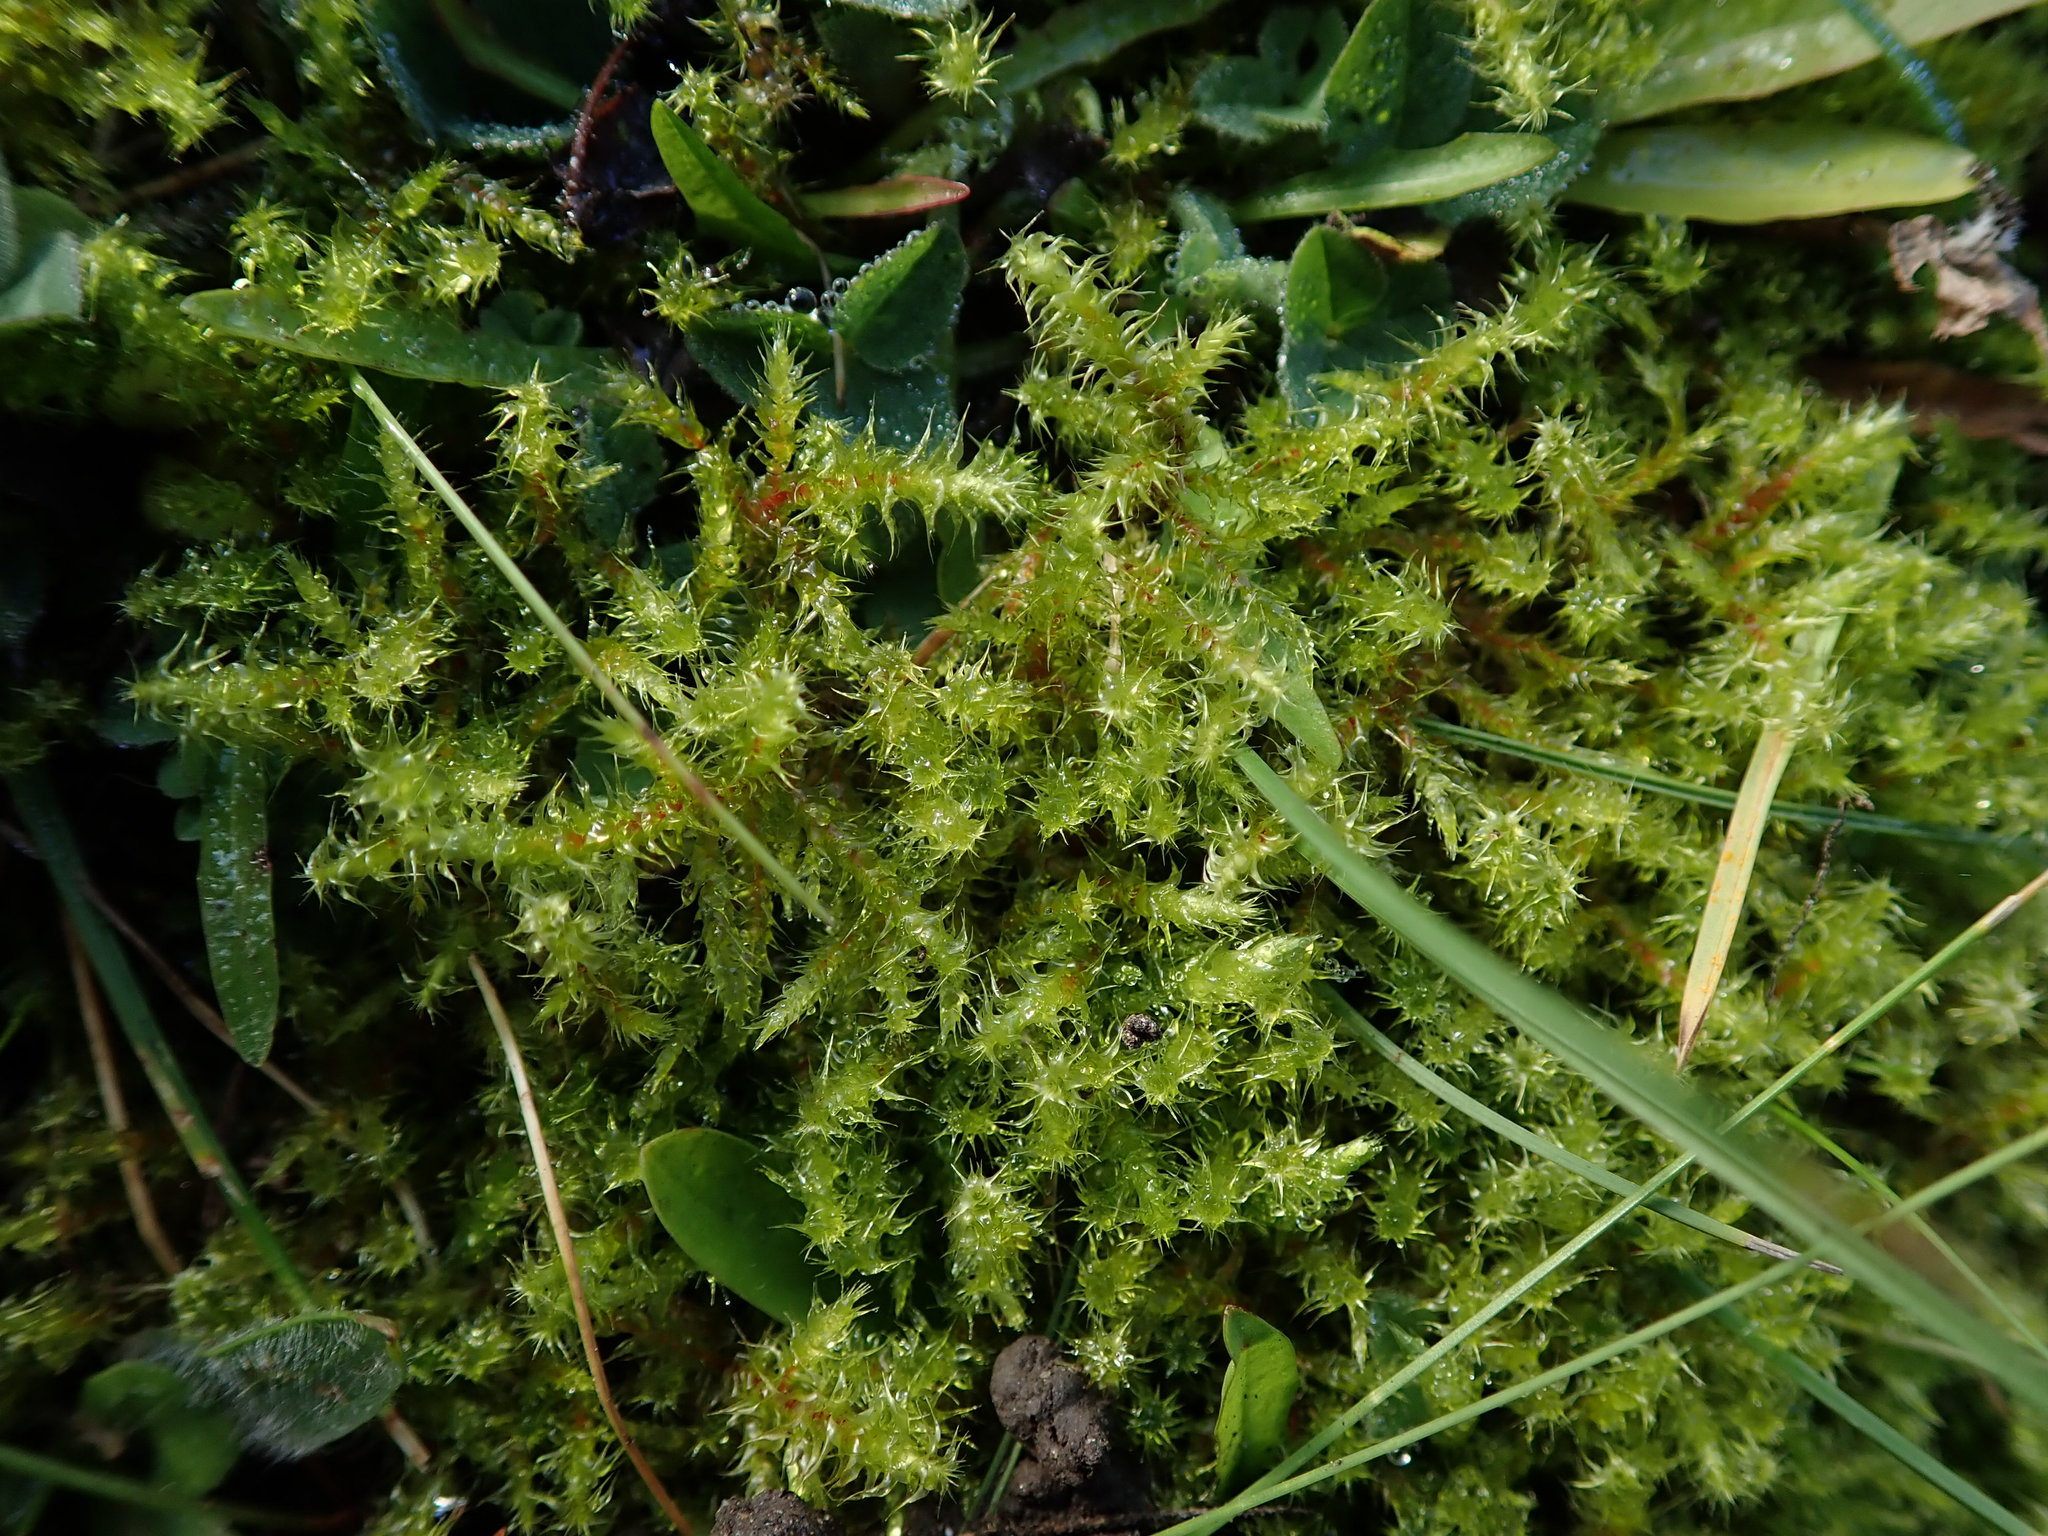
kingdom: Plantae
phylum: Bryophyta
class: Bryopsida
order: Hypnales
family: Hylocomiaceae
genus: Rhytidiadelphus
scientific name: Rhytidiadelphus squarrosus
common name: Springy turf-moss
